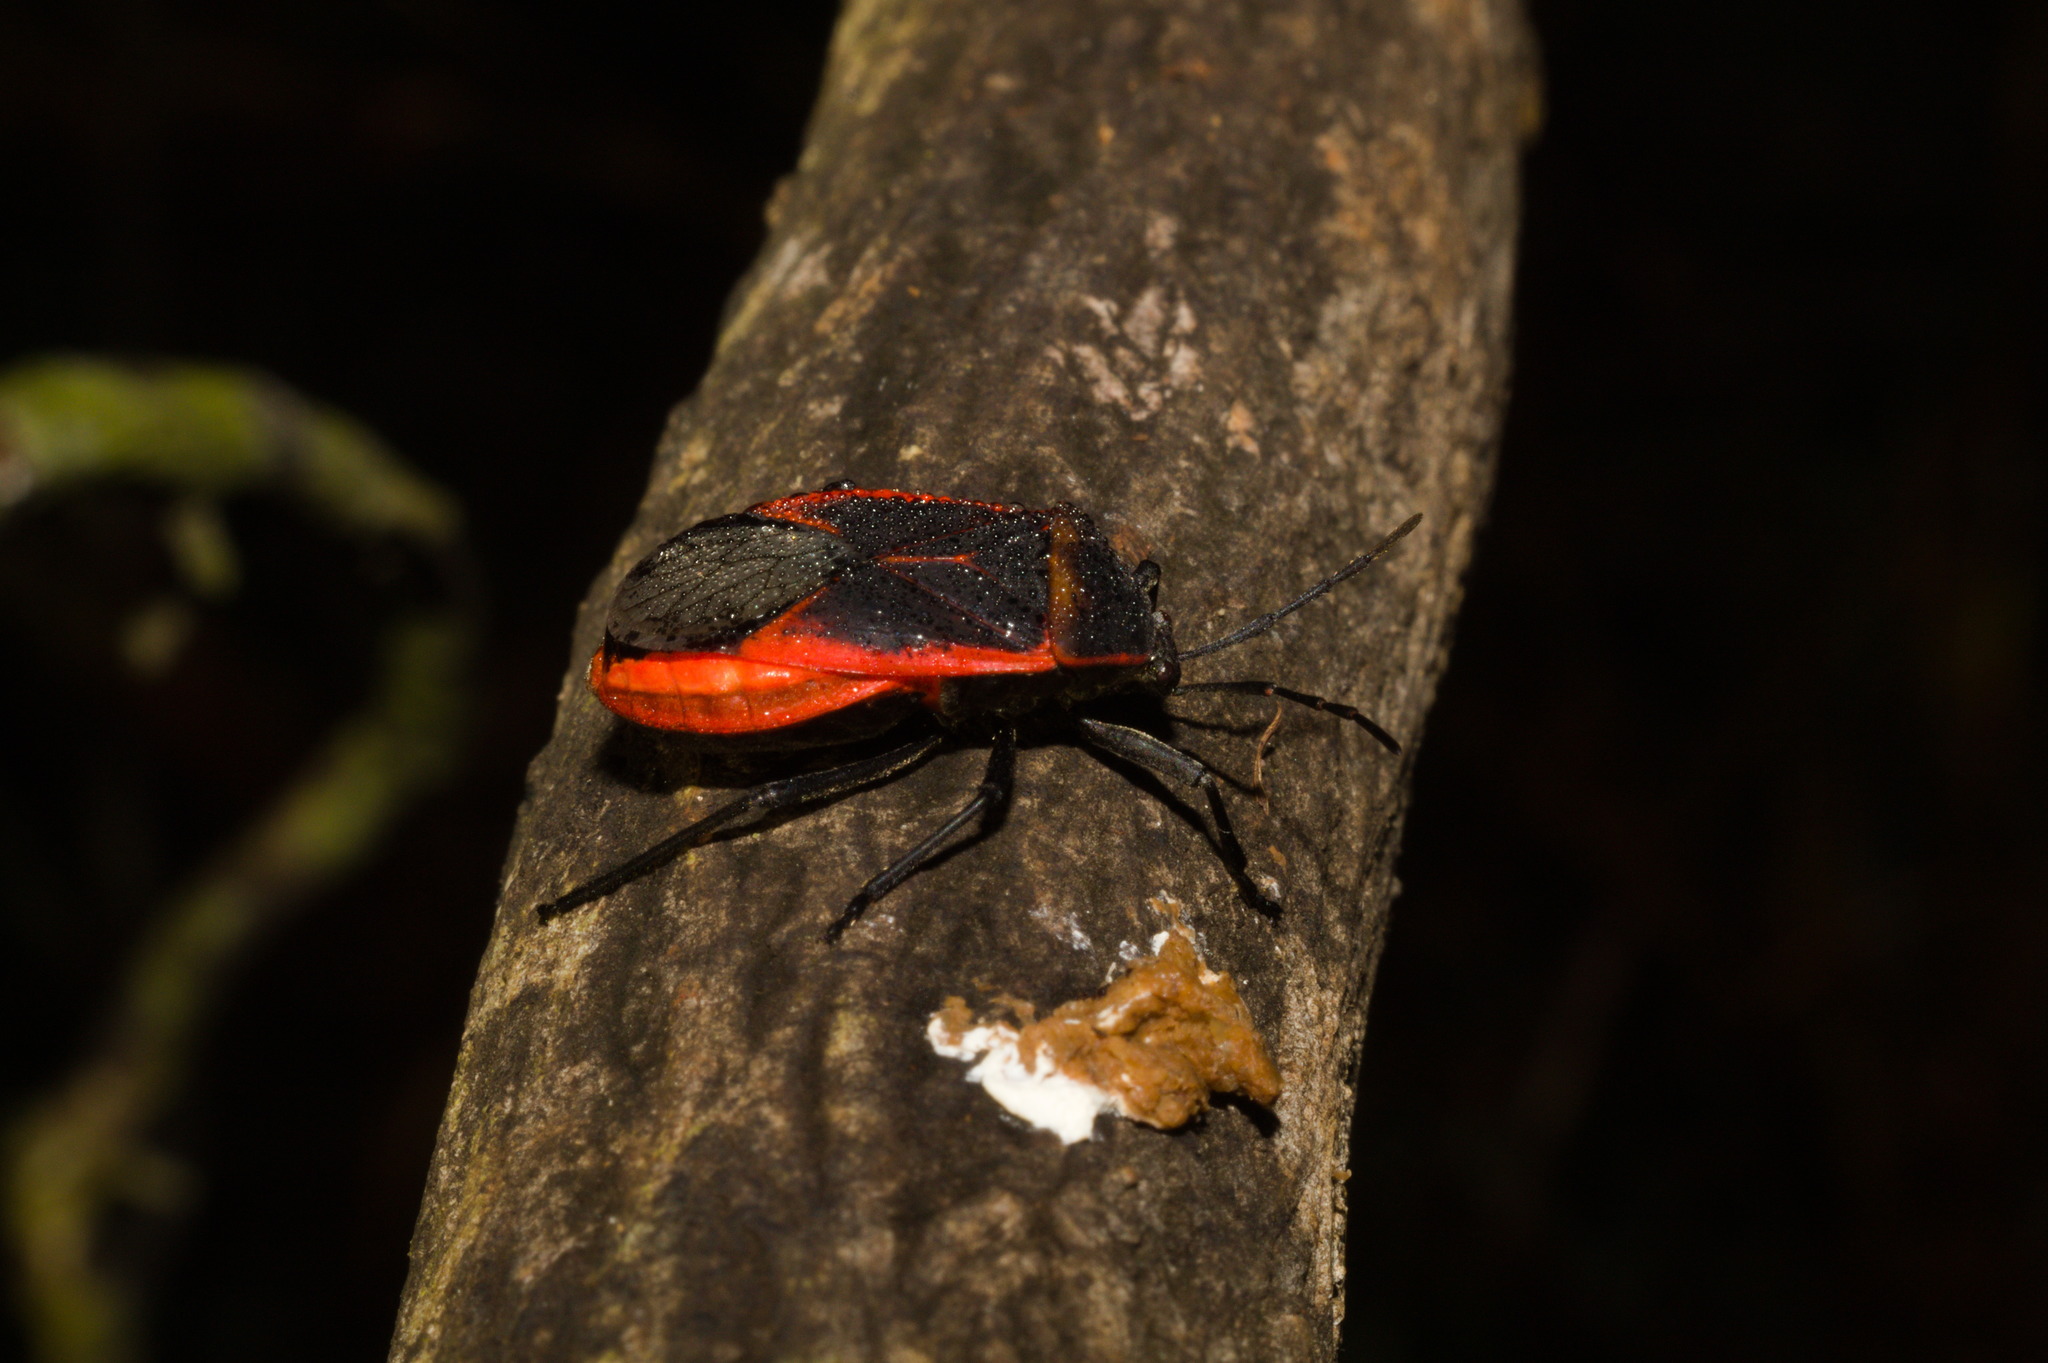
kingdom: Animalia
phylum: Arthropoda
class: Insecta
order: Hemiptera
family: Largidae
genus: Largus
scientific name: Largus rufipennis
